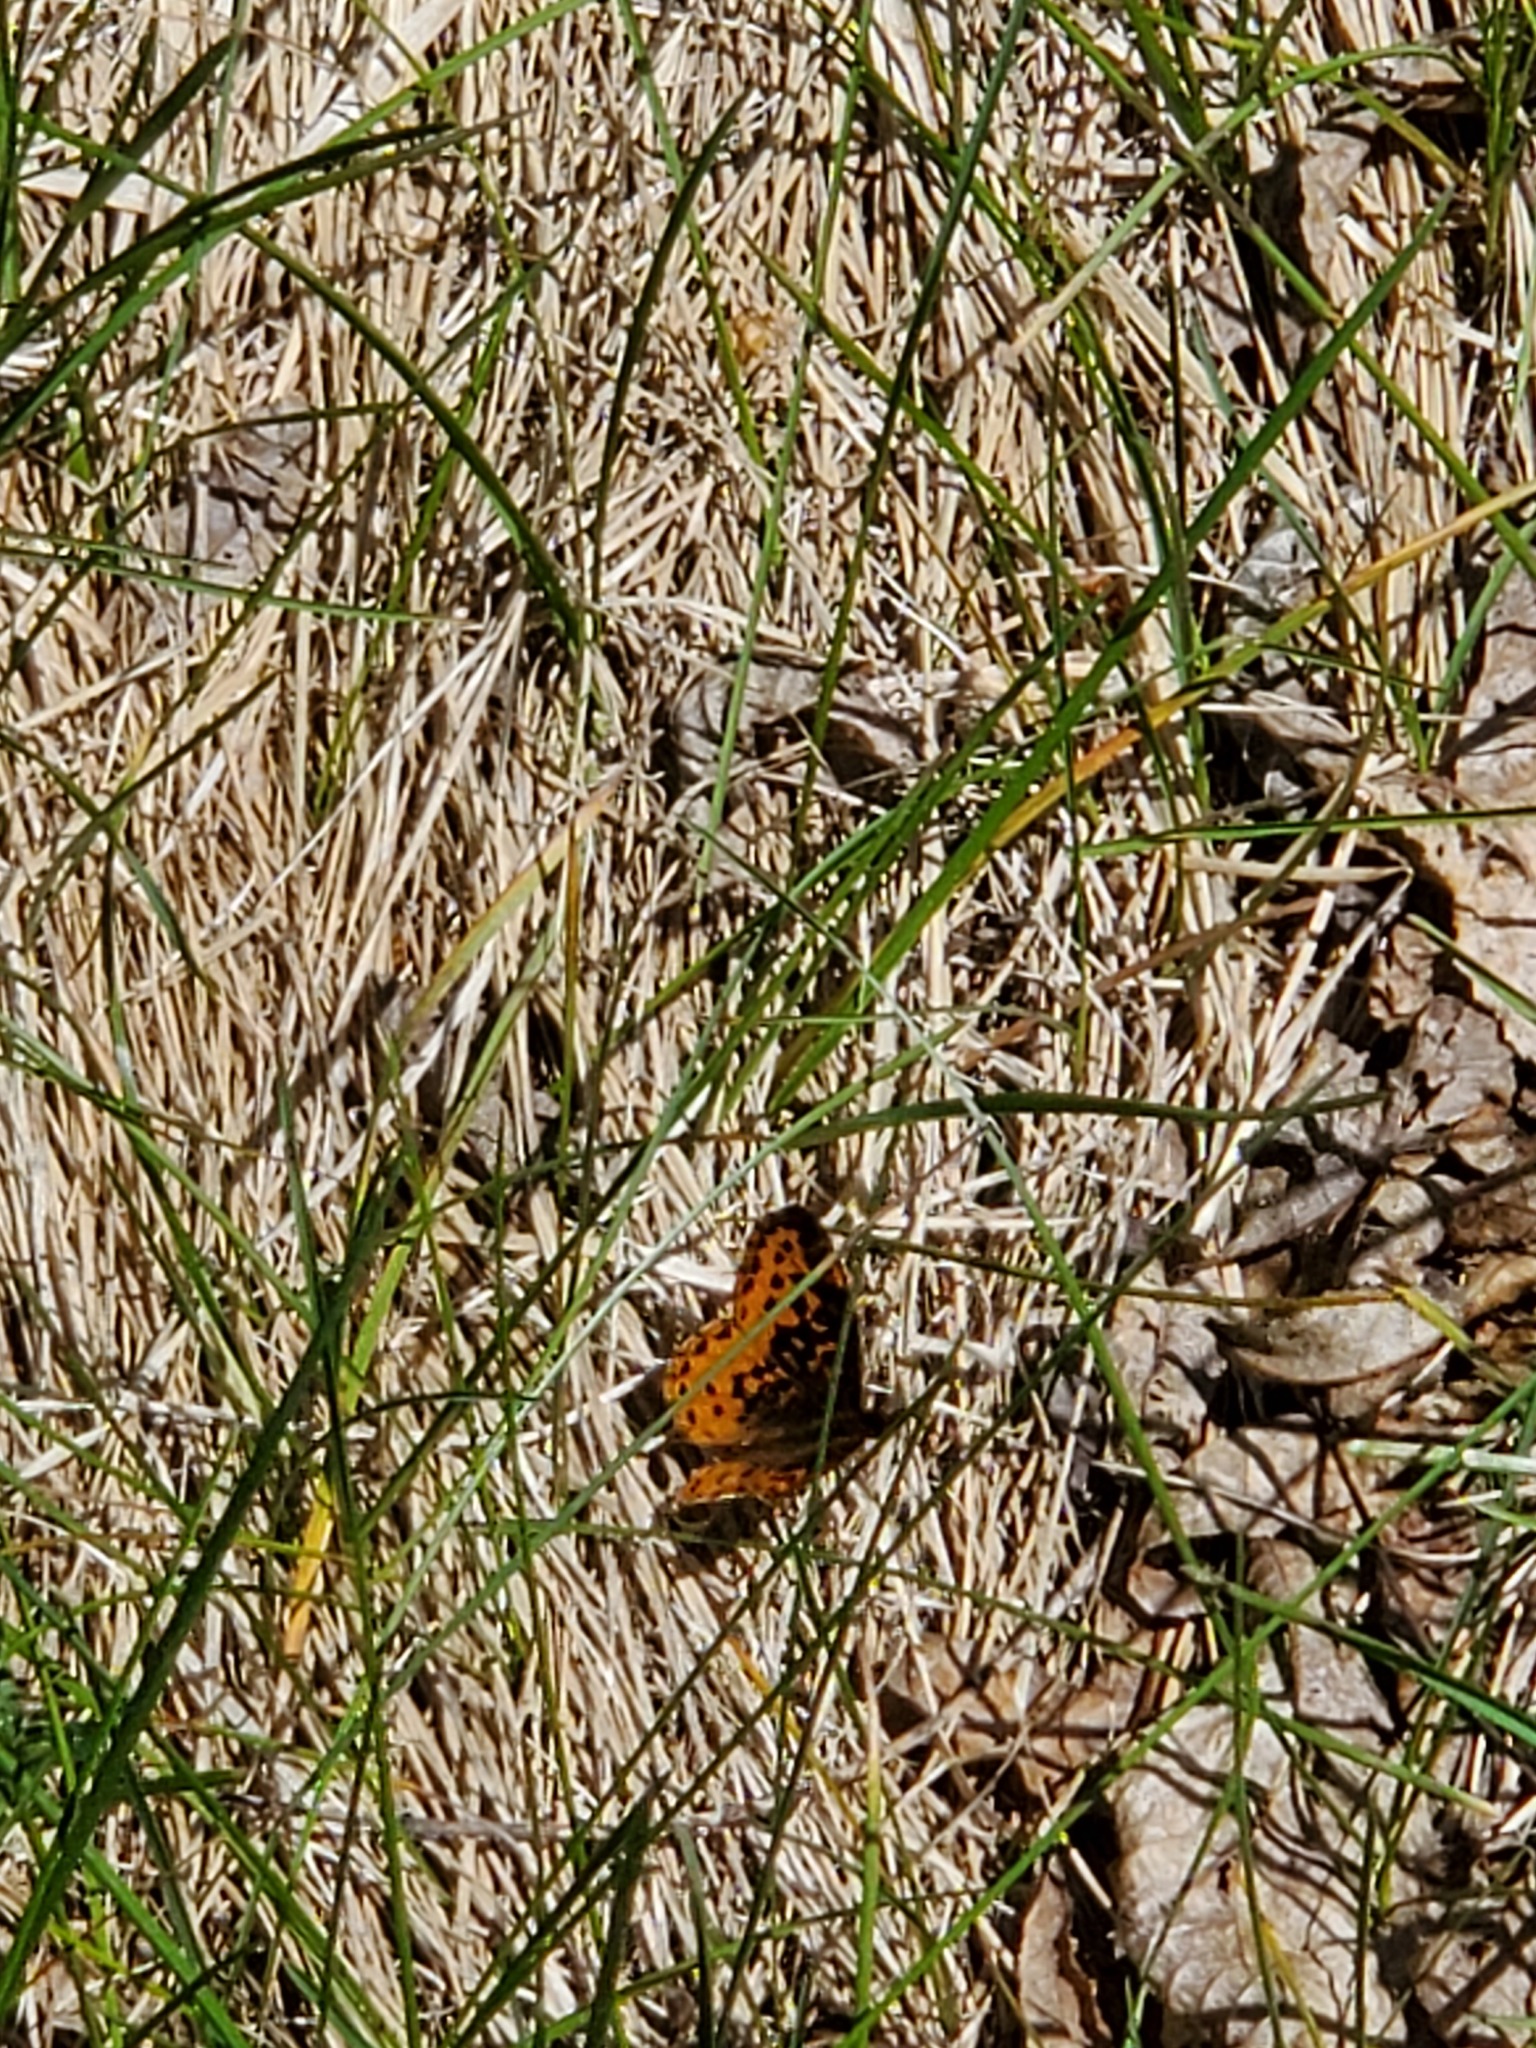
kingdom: Animalia
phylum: Arthropoda
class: Insecta
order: Lepidoptera
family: Nymphalidae
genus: Clossiana
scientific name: Clossiana toddi
